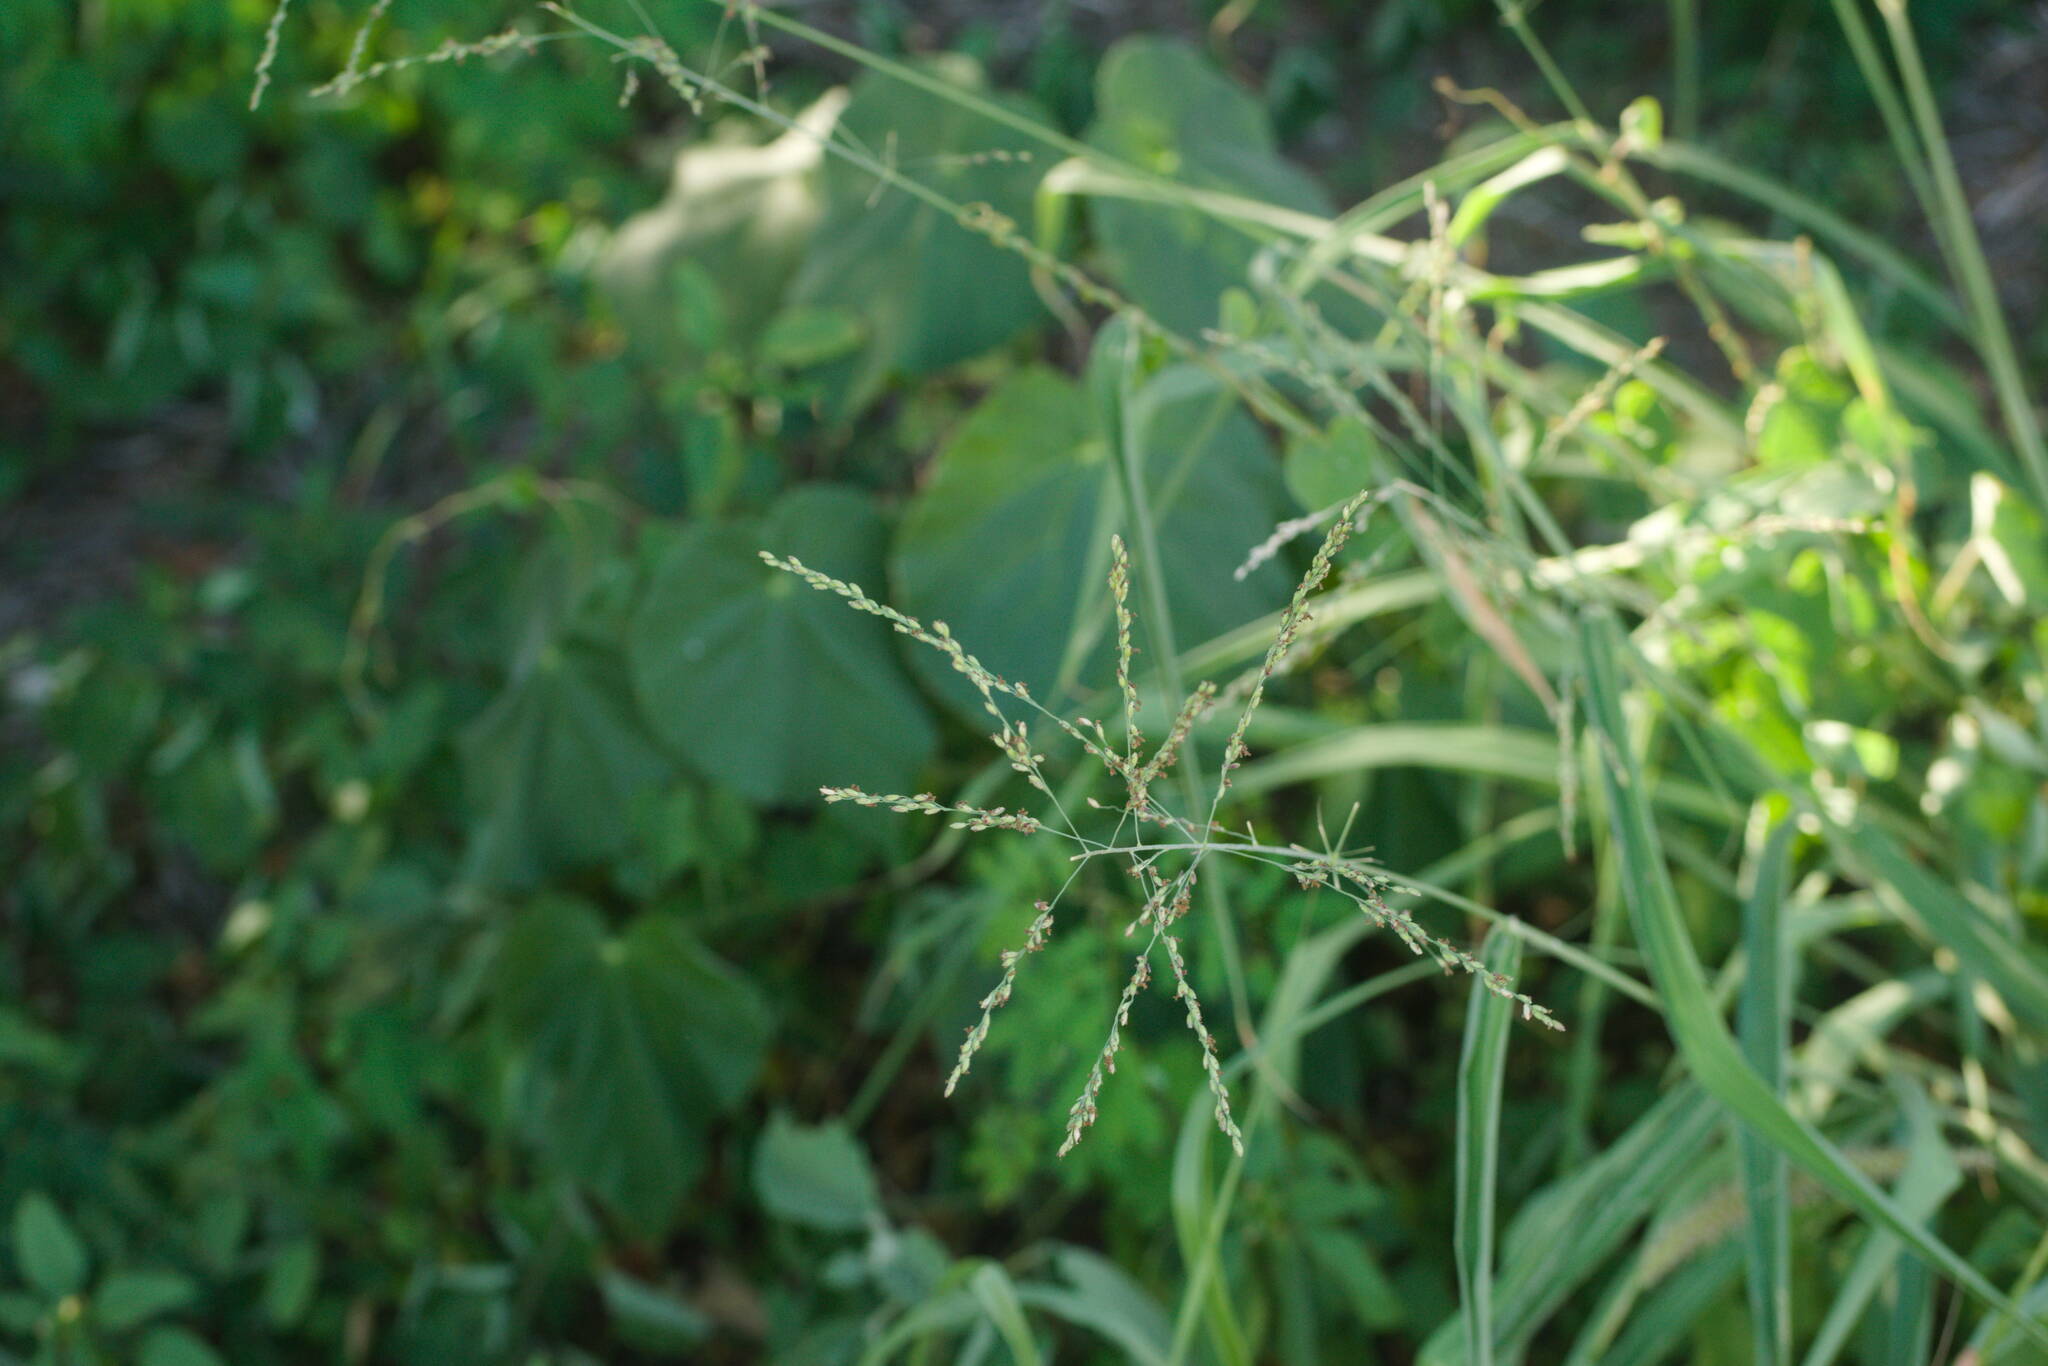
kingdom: Plantae
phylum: Tracheophyta
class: Liliopsida
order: Poales
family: Poaceae
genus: Megathyrsus
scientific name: Megathyrsus maximus
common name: Guineagrass
